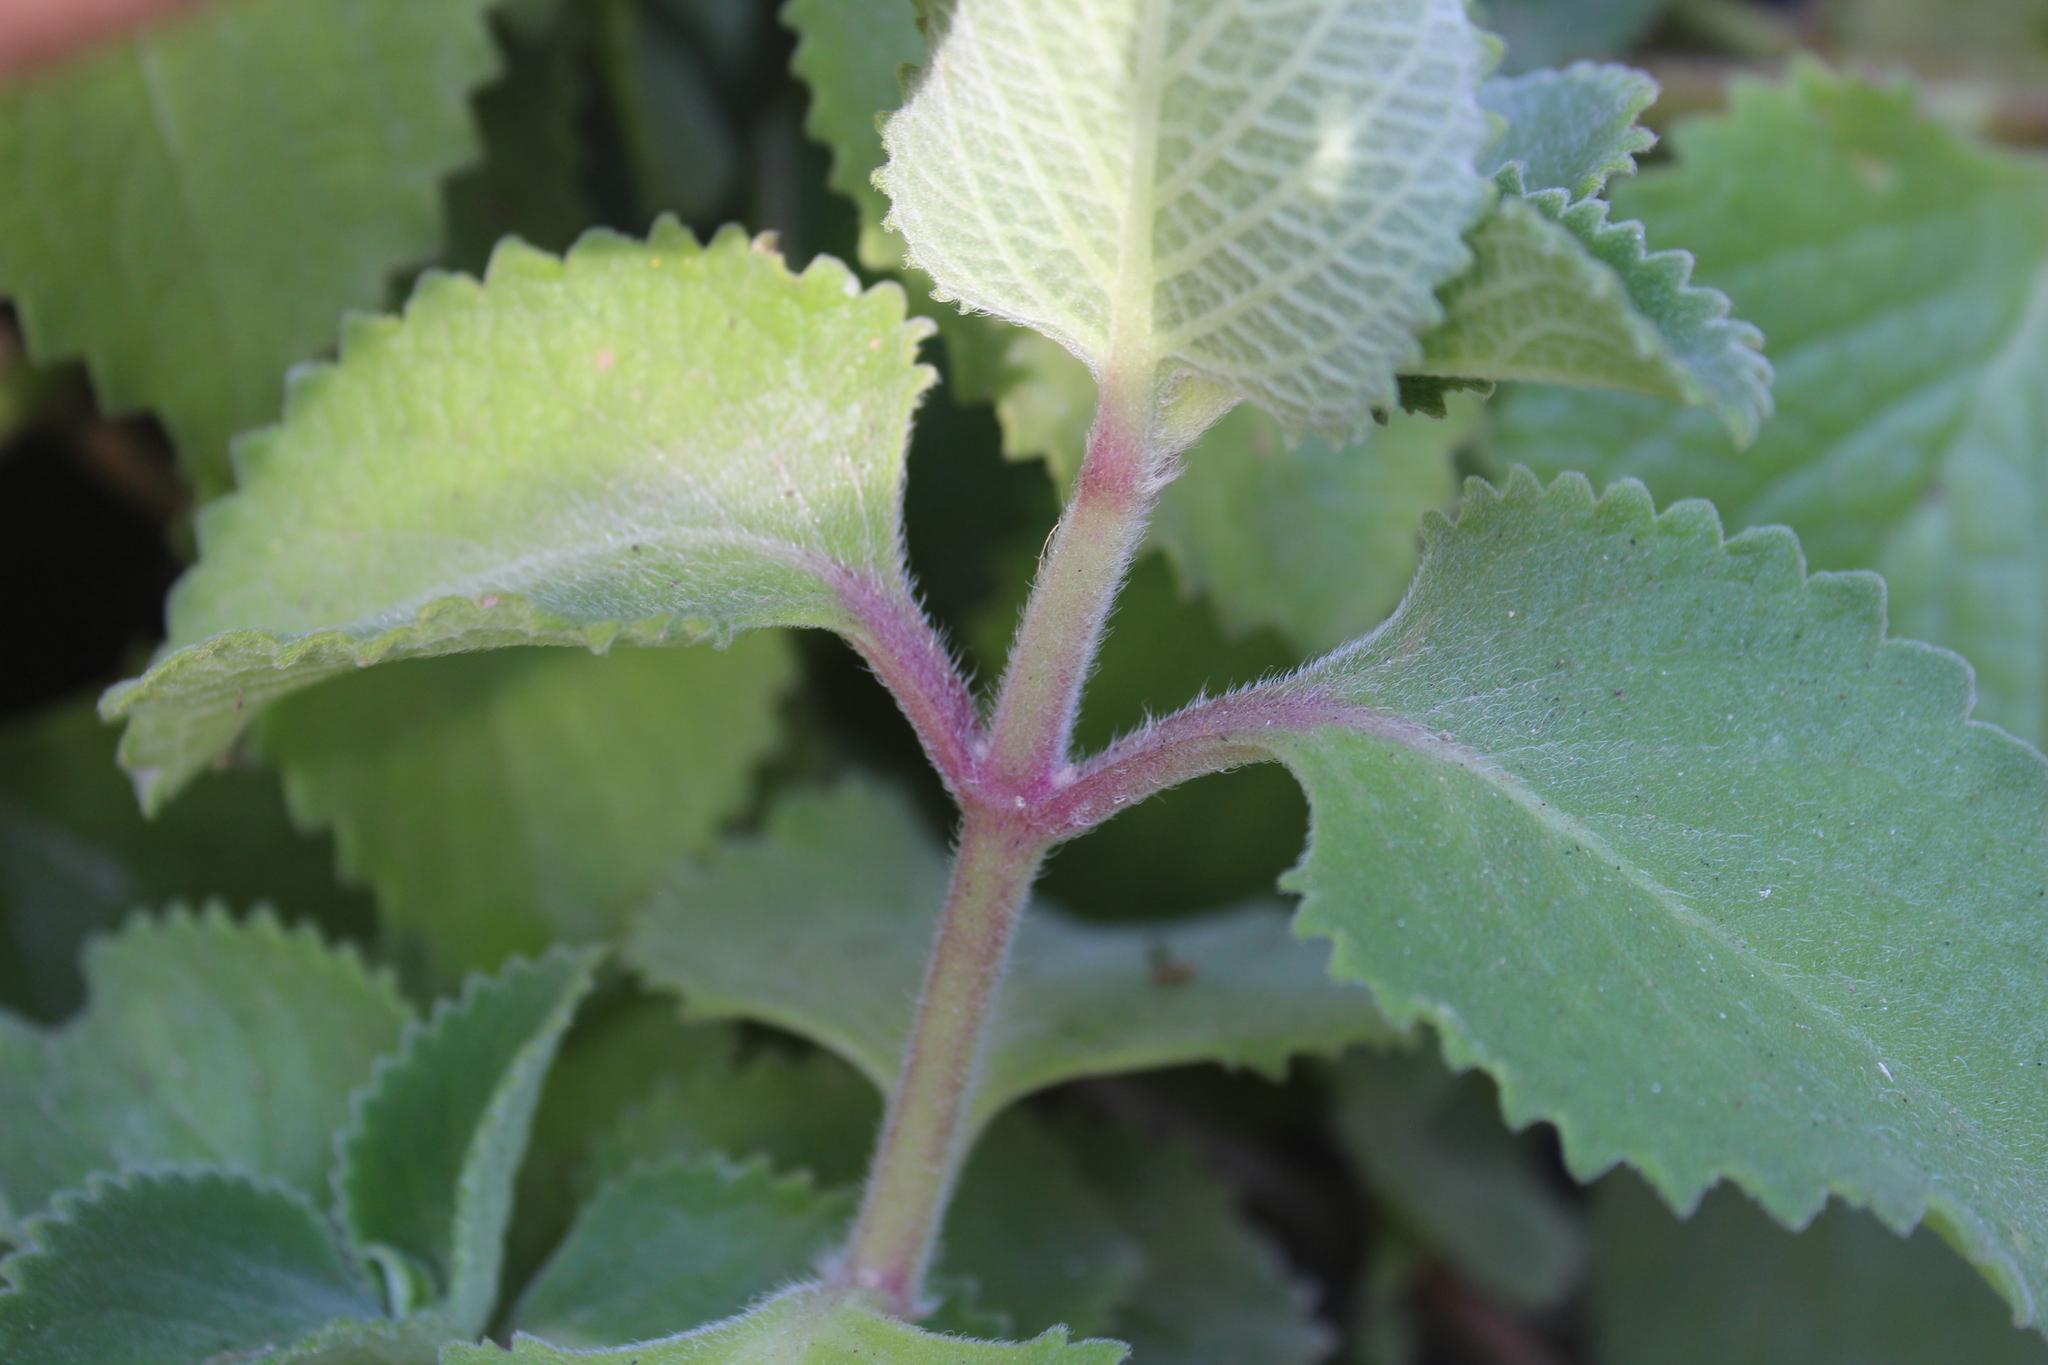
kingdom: Plantae
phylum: Tracheophyta
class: Magnoliopsida
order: Lamiales
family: Lamiaceae
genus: Coleus
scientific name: Coleus amboinicus
